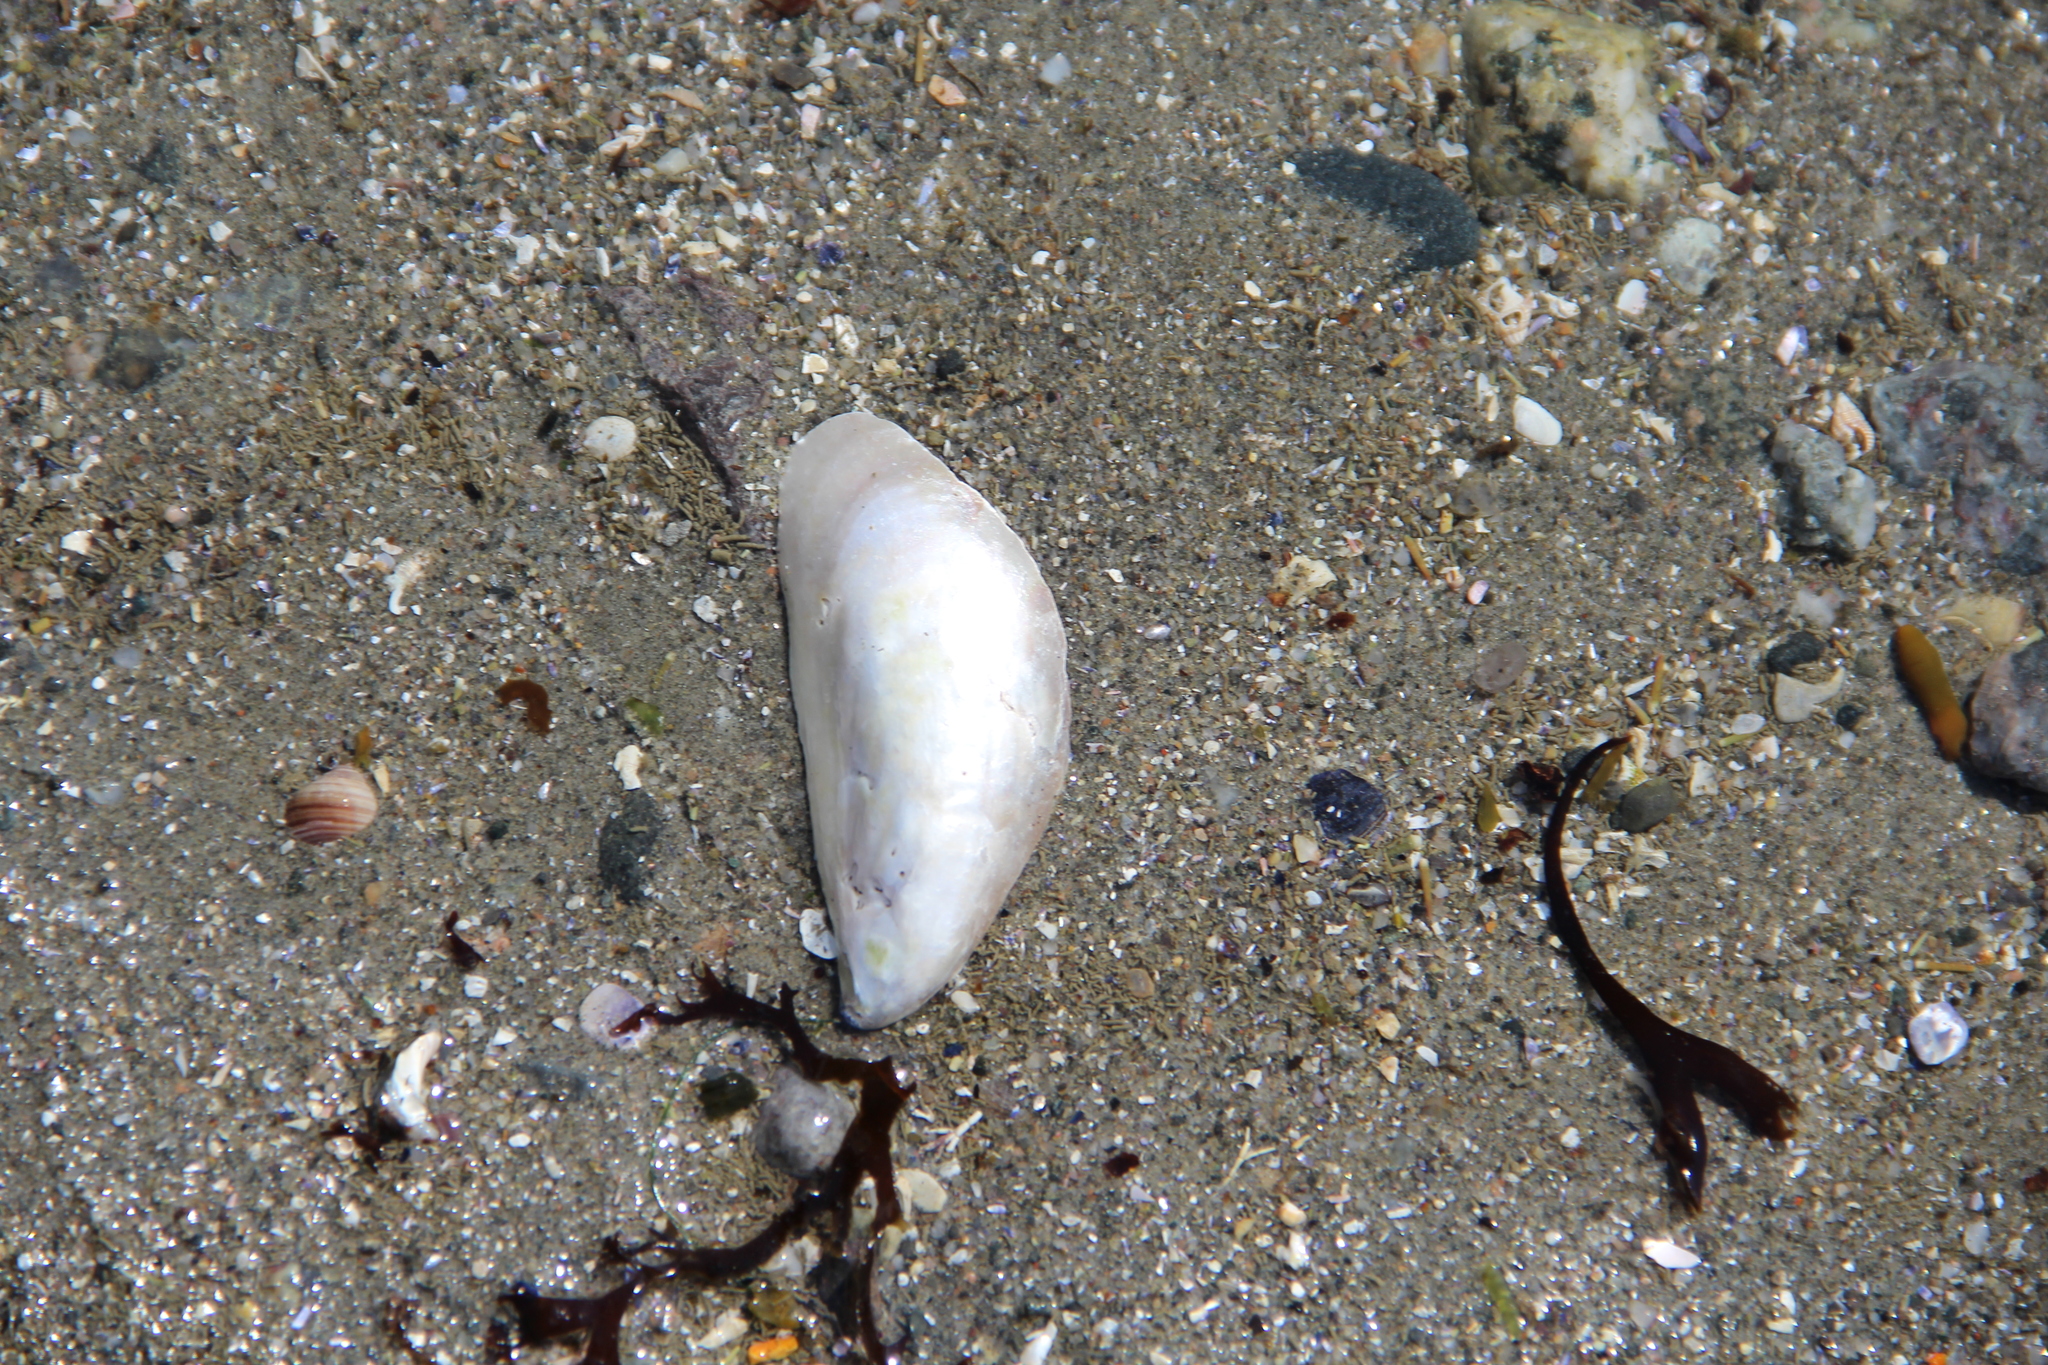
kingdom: Animalia
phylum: Mollusca
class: Bivalvia
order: Mytilida
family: Mytilidae
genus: Mytilus
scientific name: Mytilus edulis
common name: Blue mussel
